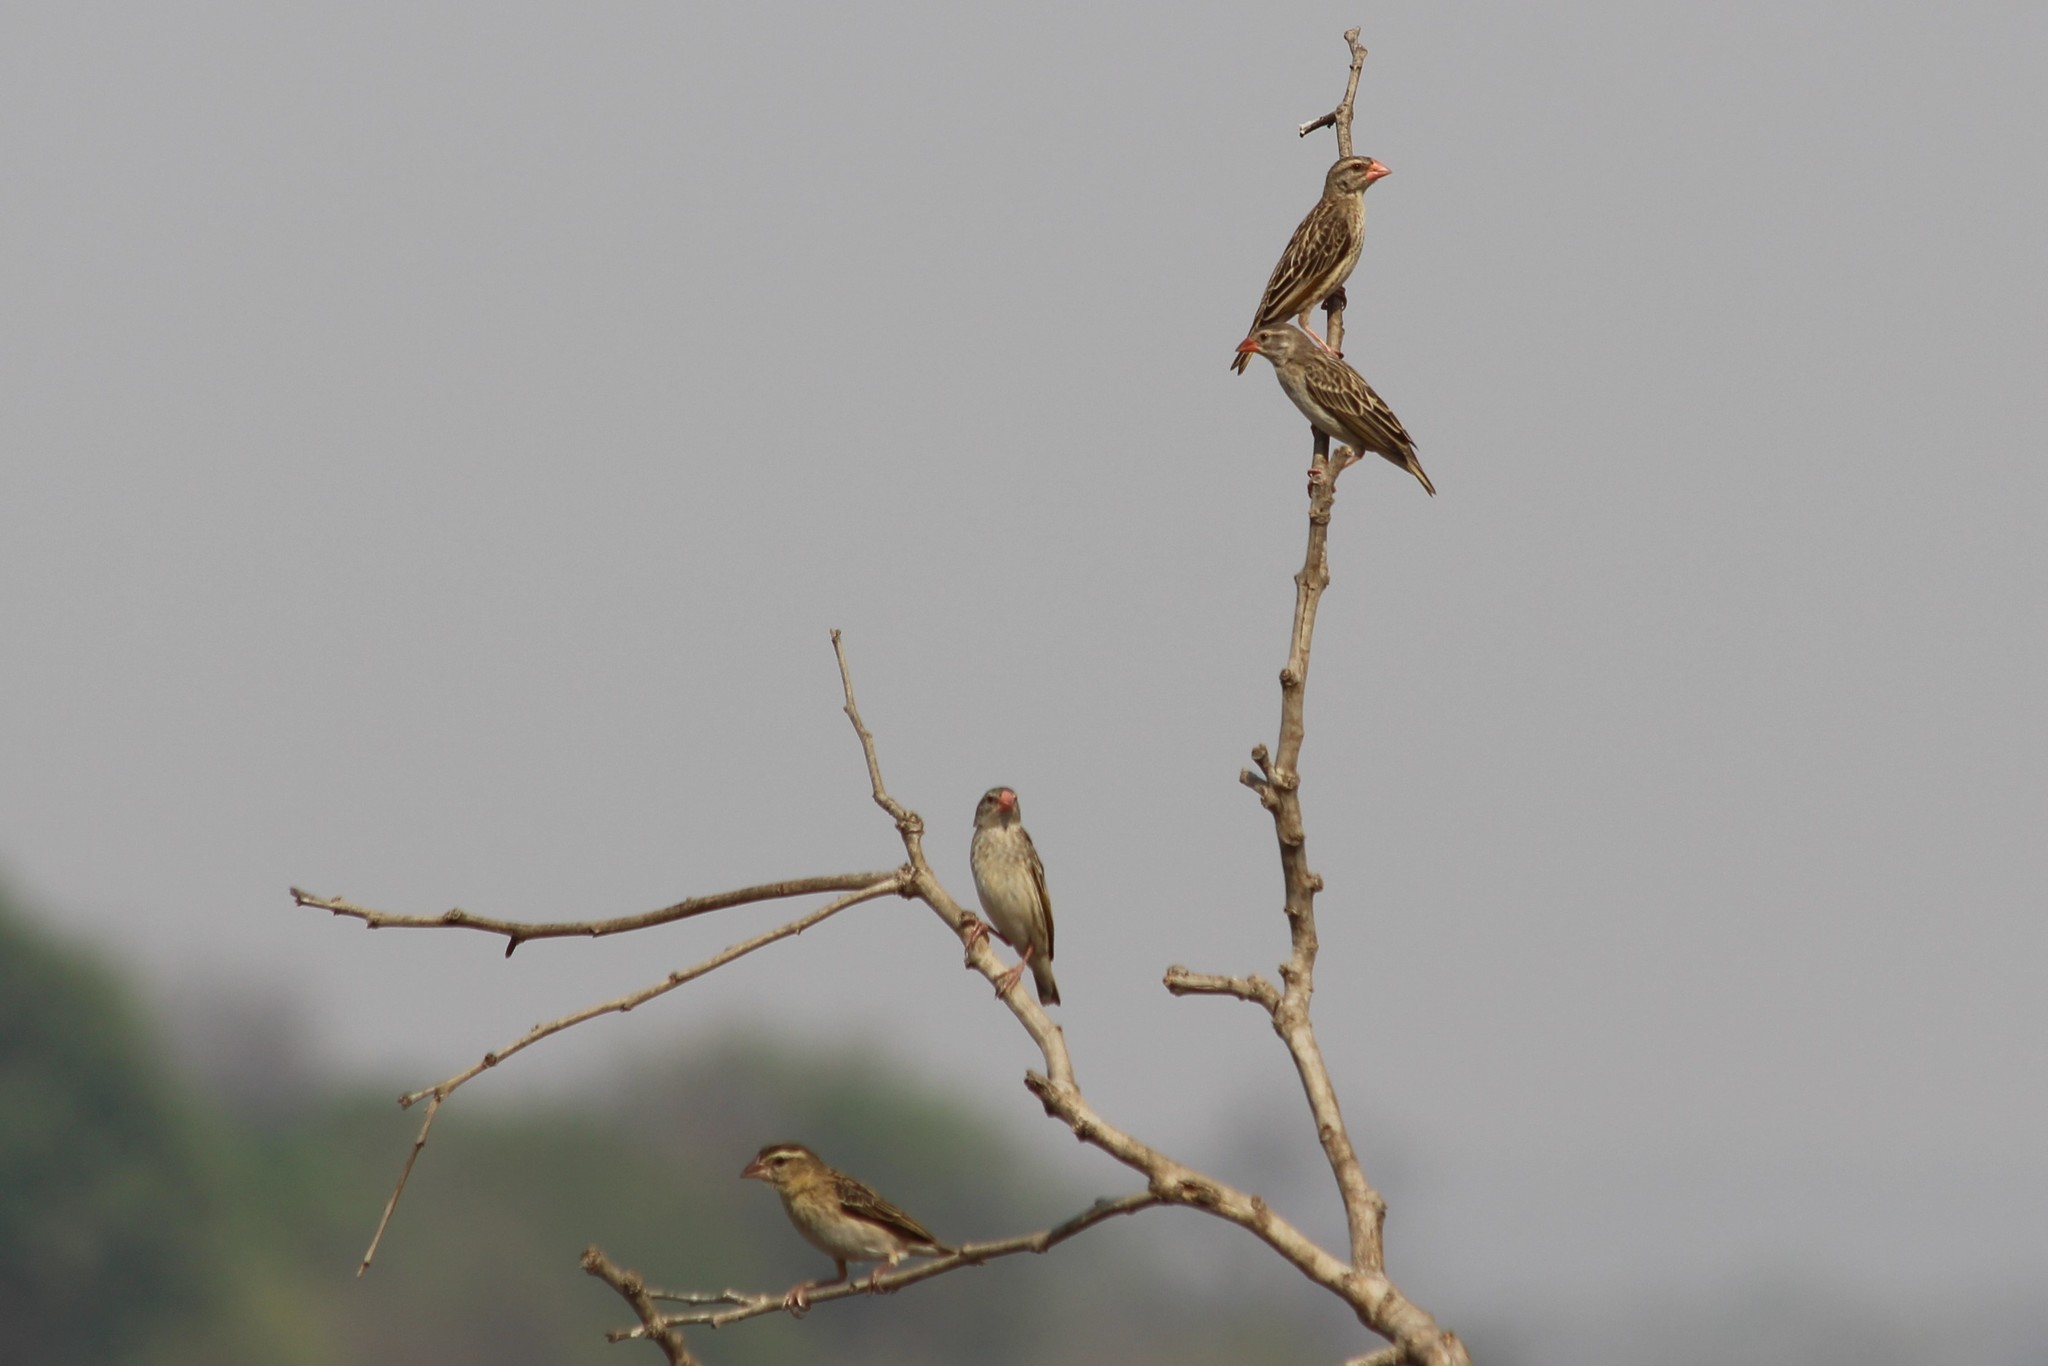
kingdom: Animalia
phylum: Chordata
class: Aves
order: Passeriformes
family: Ploceidae
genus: Quelea
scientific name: Quelea quelea
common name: Red-billed quelea
